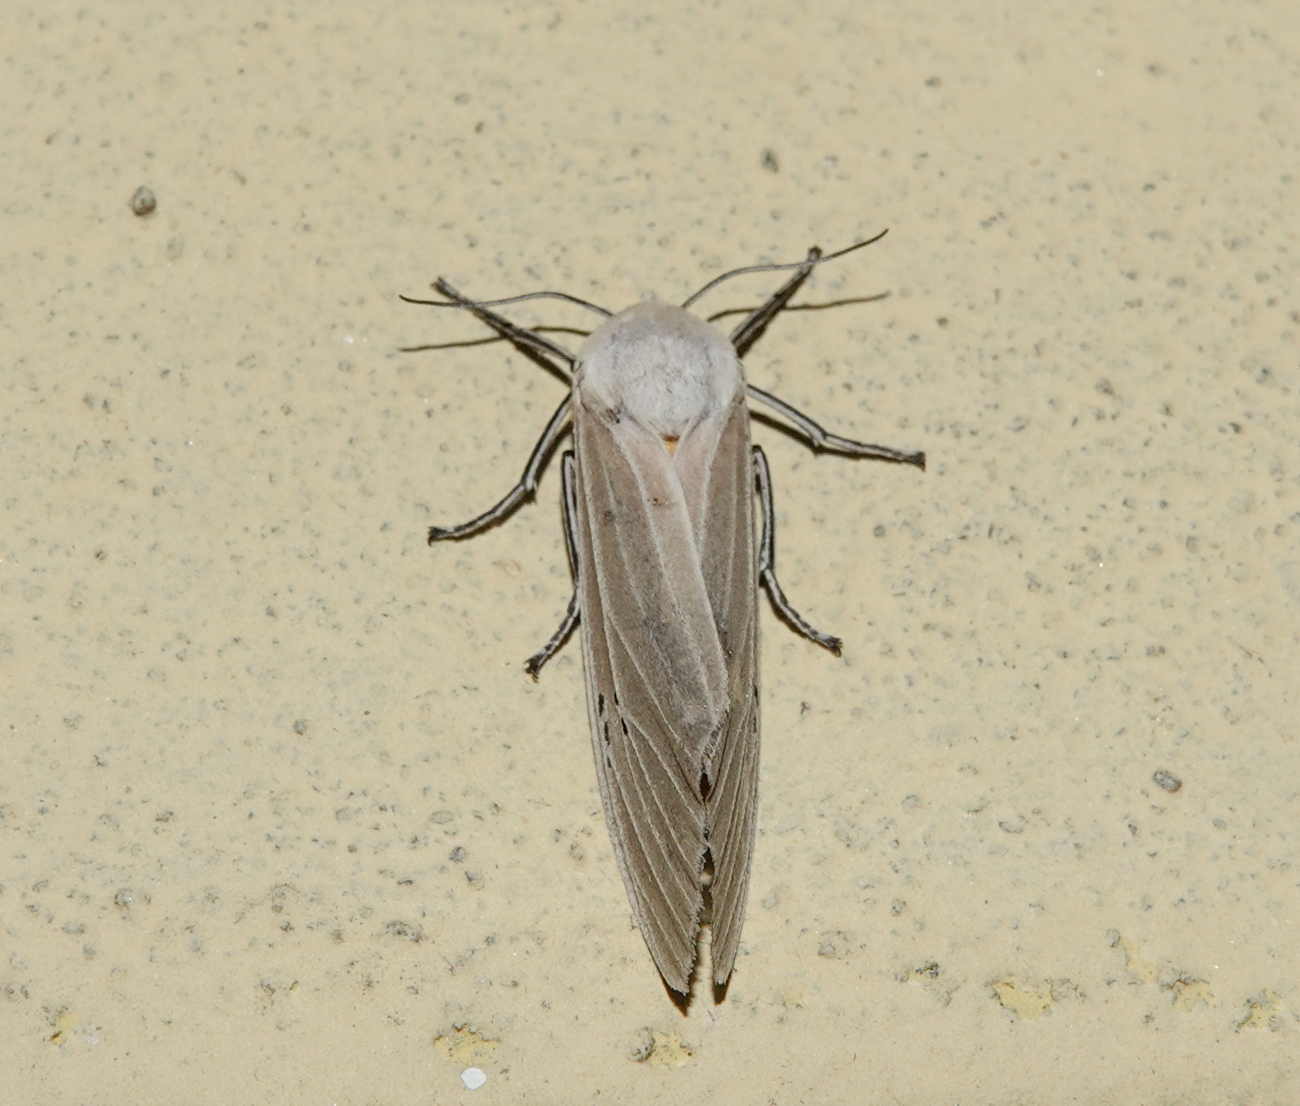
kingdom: Animalia
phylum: Arthropoda
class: Insecta
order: Lepidoptera
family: Erebidae
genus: Creatonotos
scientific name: Creatonotos transiens
